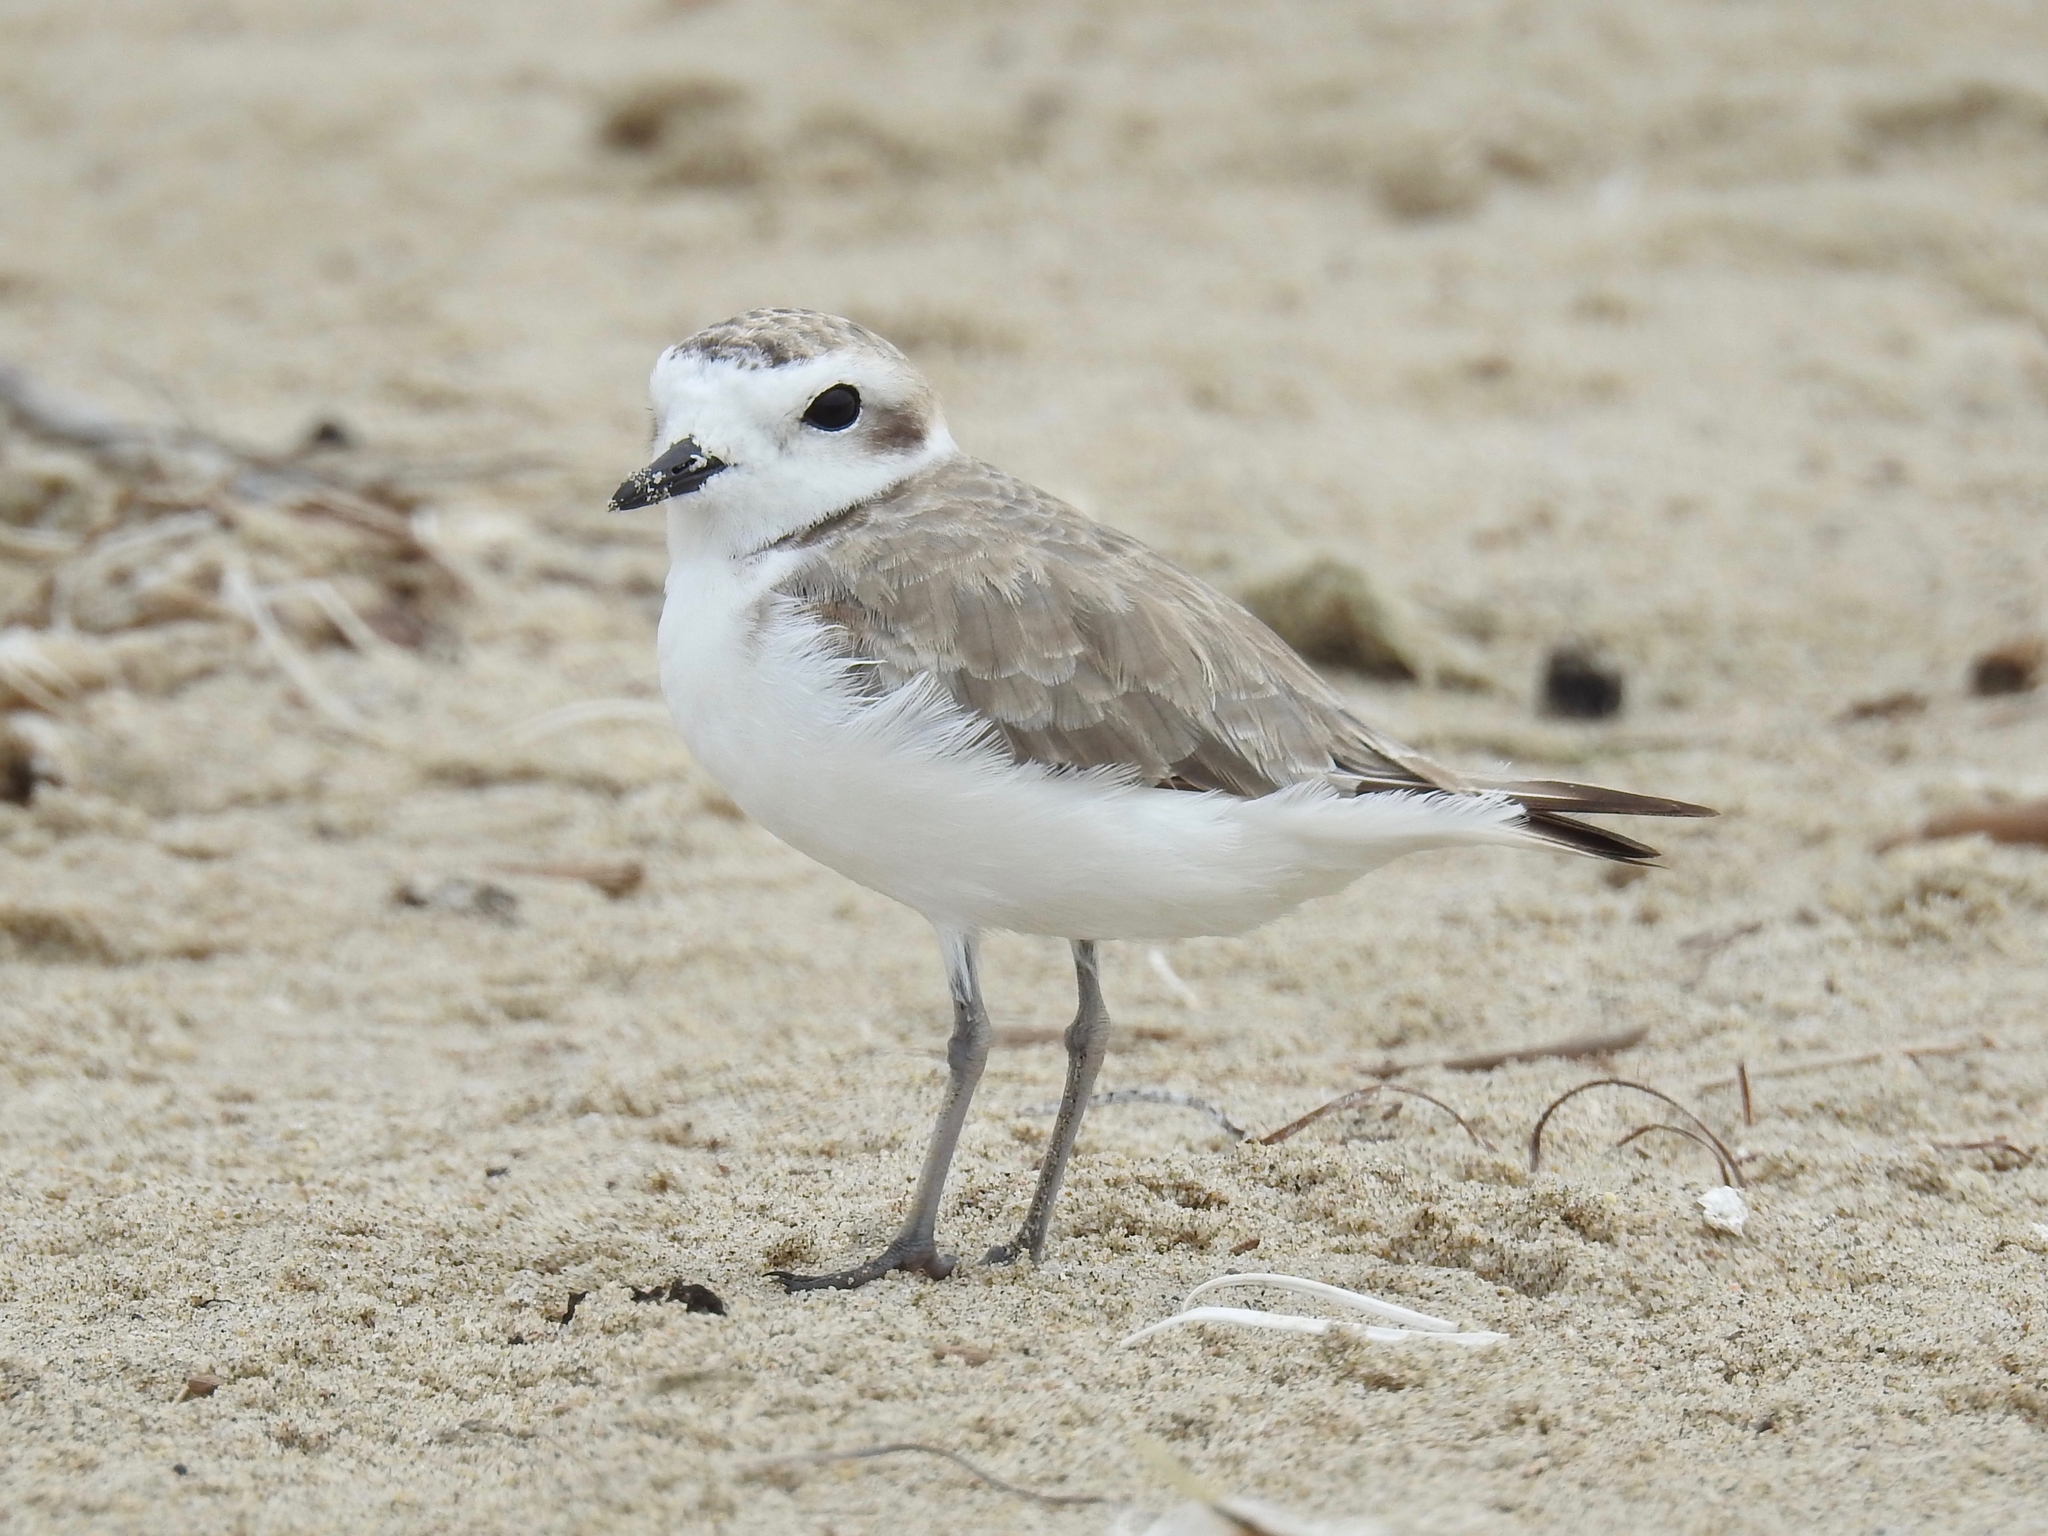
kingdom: Animalia
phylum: Chordata
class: Aves
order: Charadriiformes
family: Charadriidae
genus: Anarhynchus
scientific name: Anarhynchus
